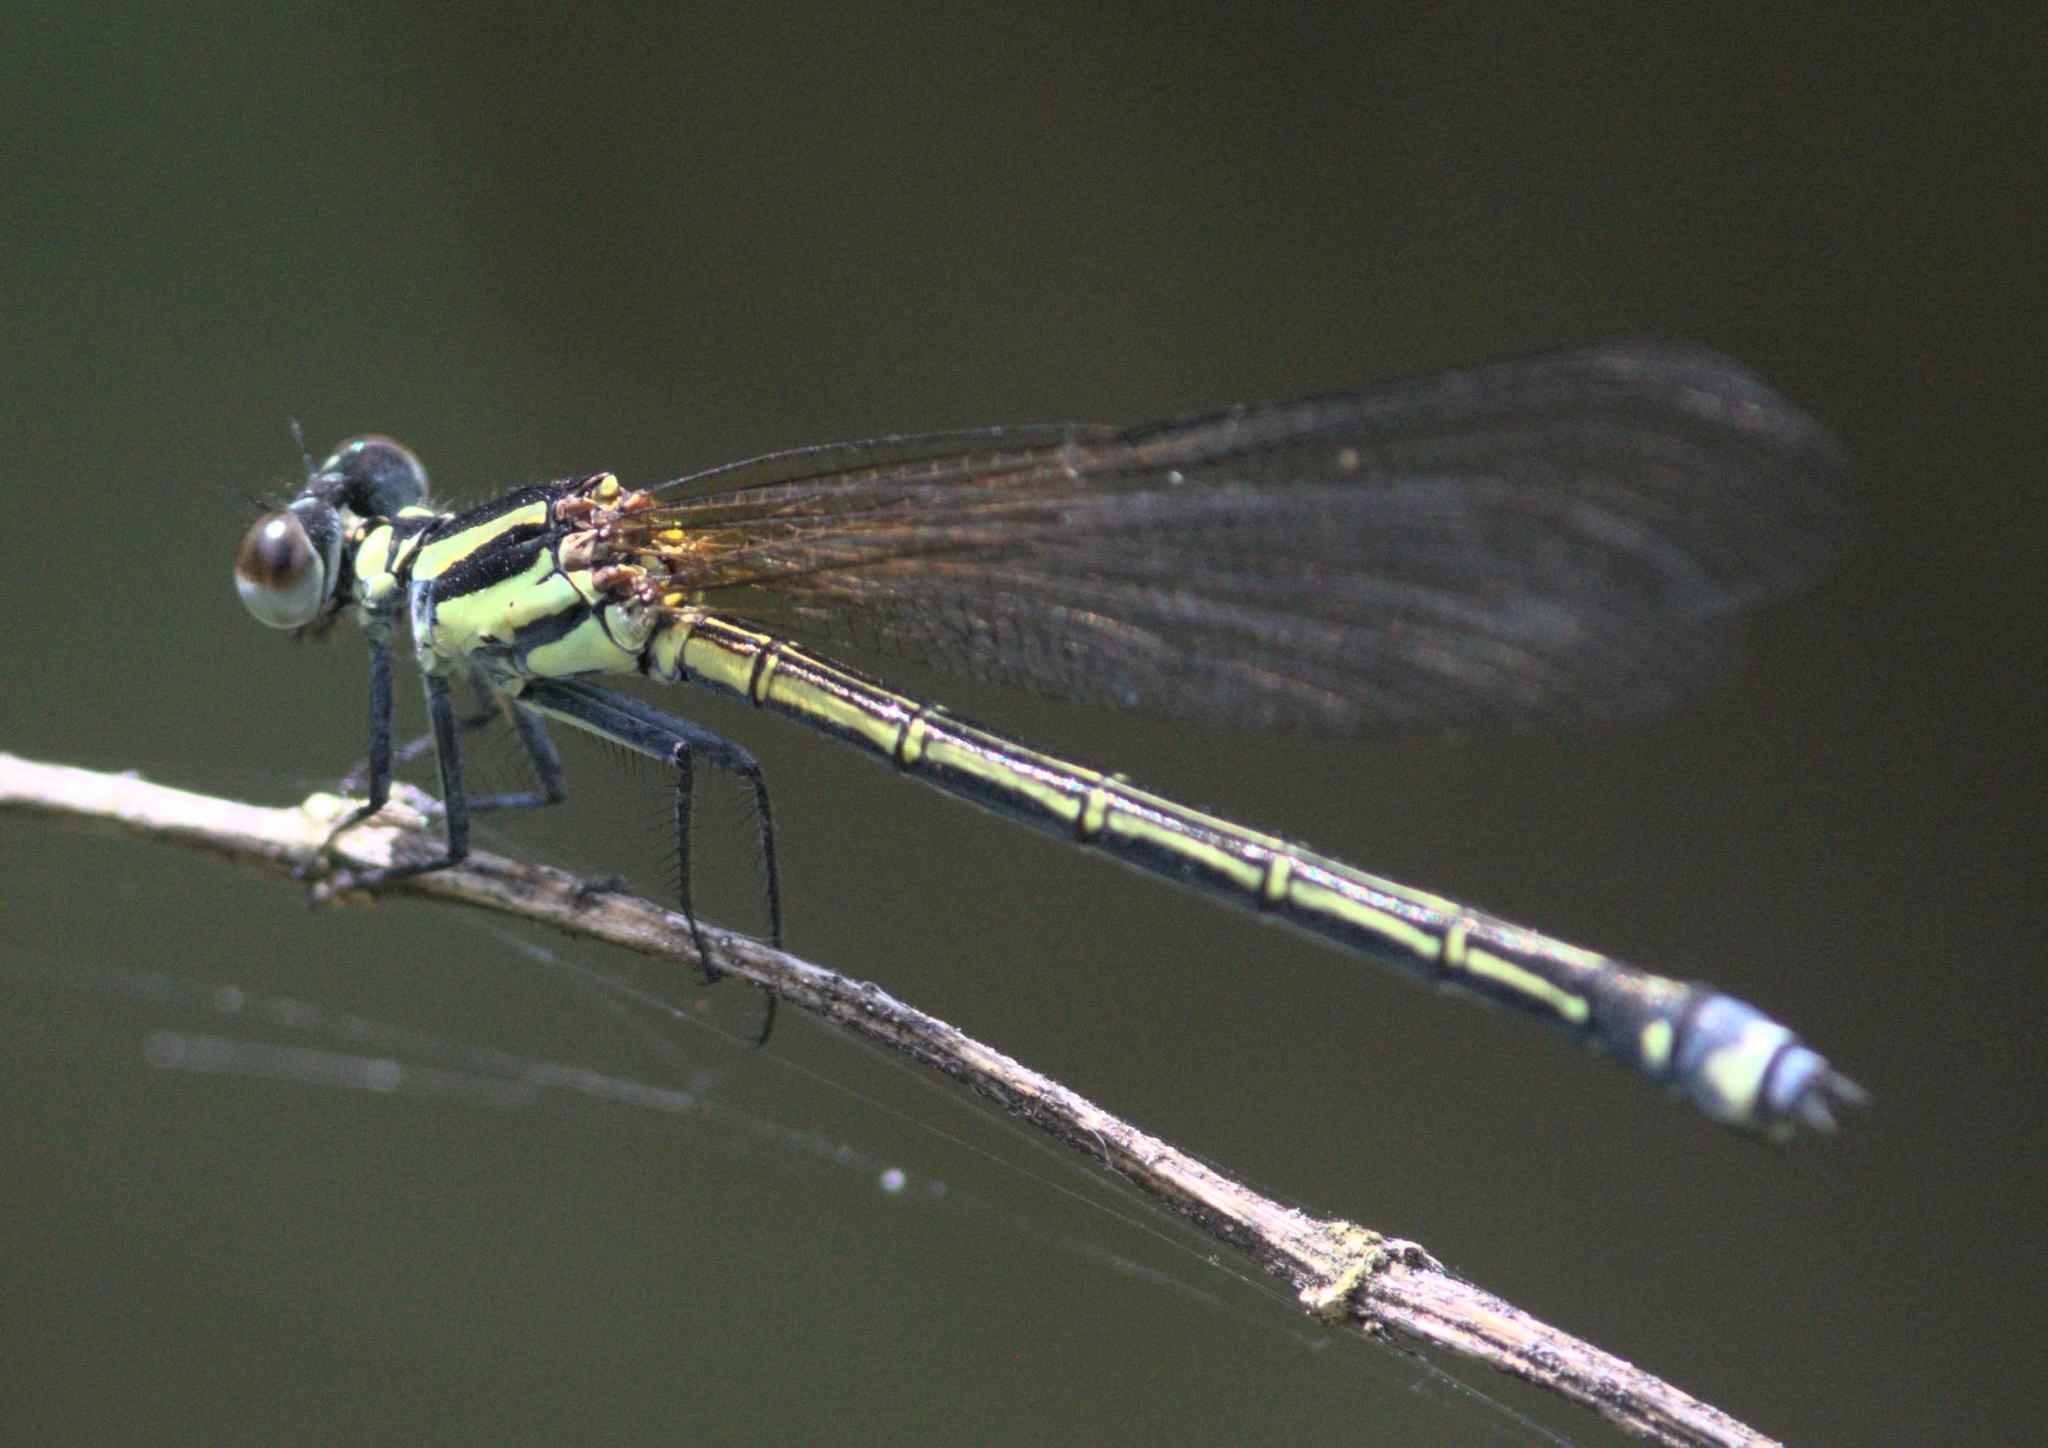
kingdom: Animalia
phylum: Arthropoda
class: Insecta
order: Odonata
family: Euphaeidae
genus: Anisopleura
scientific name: Anisopleura lestoides
